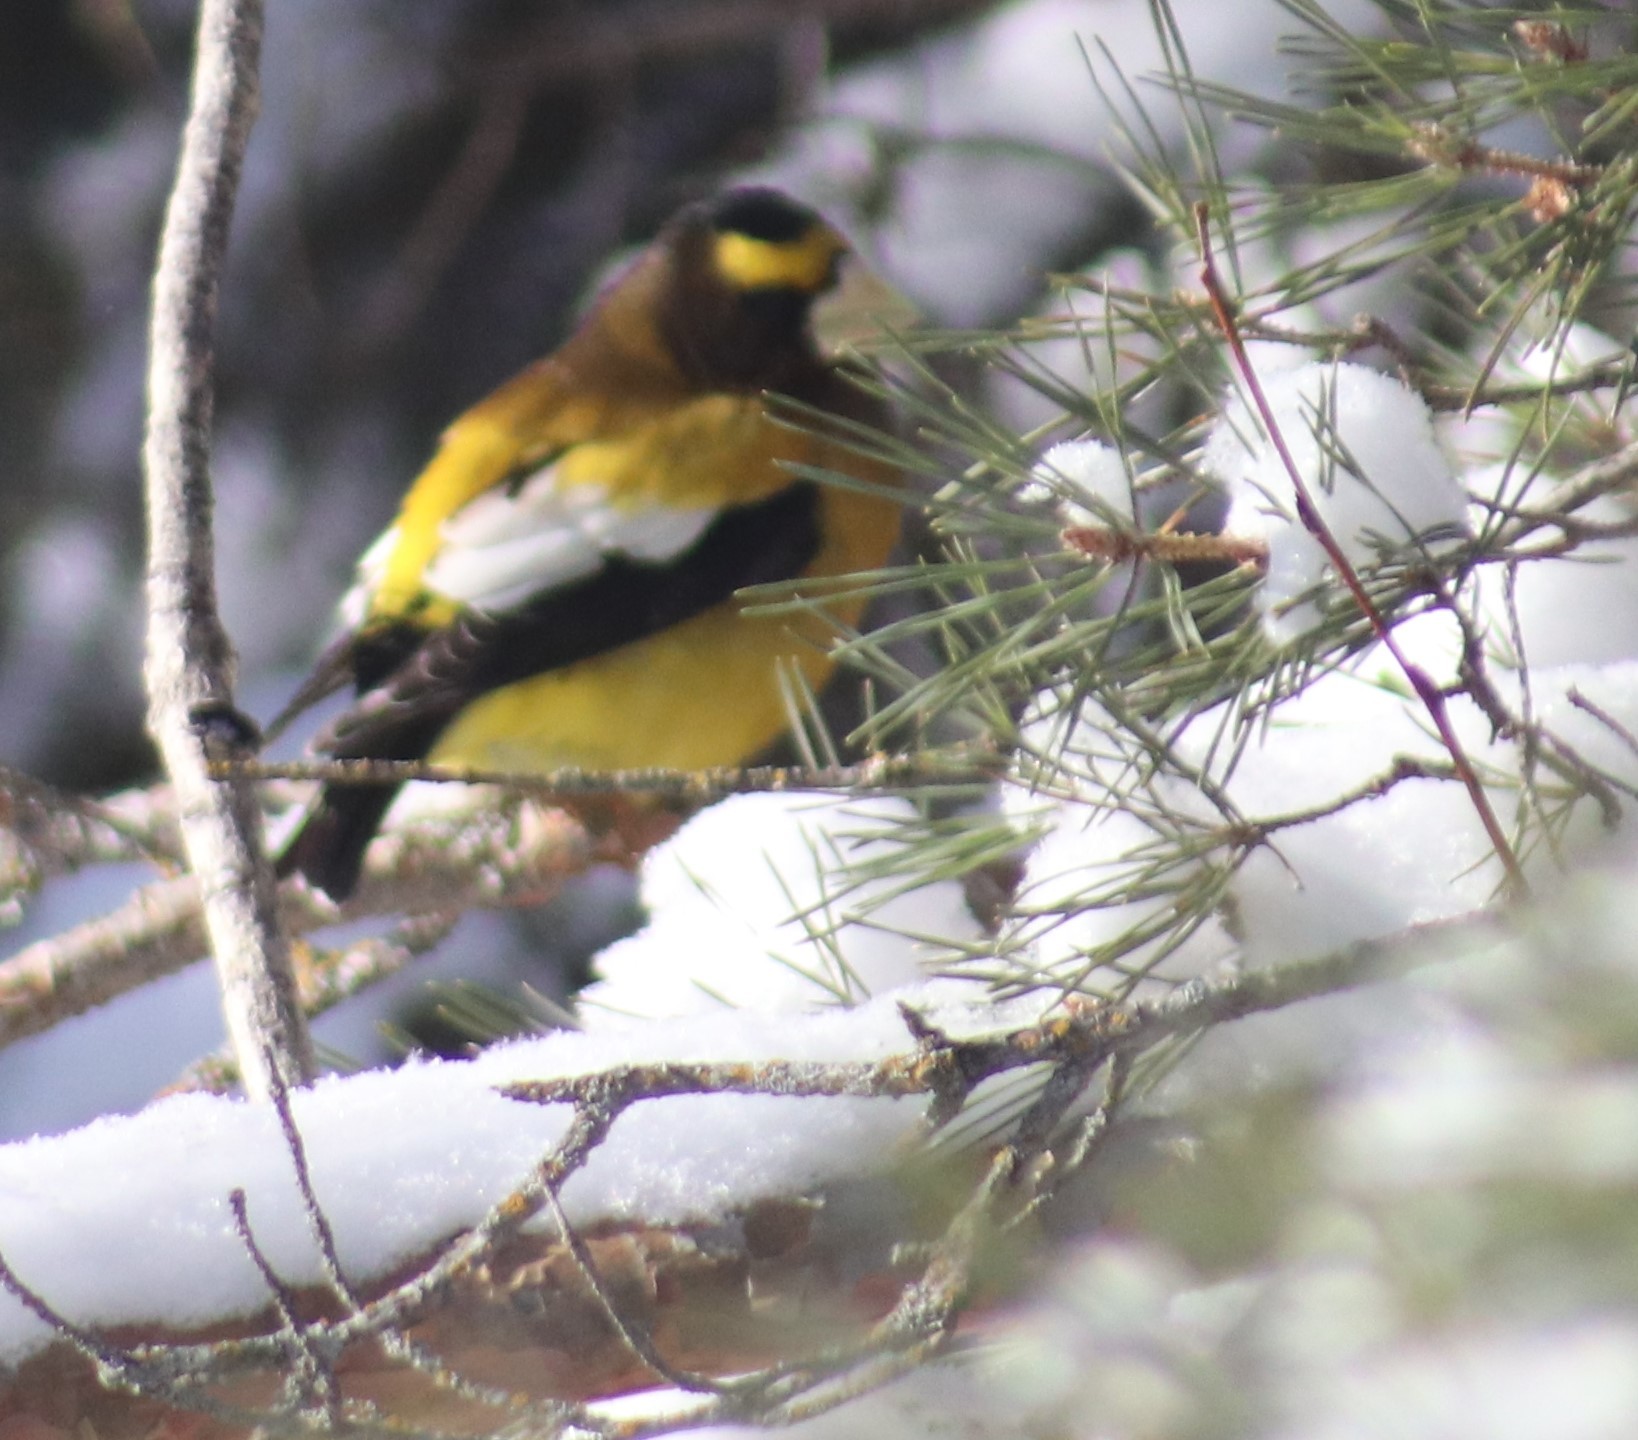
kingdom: Animalia
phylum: Chordata
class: Aves
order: Passeriformes
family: Fringillidae
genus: Hesperiphona
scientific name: Hesperiphona vespertina
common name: Evening grosbeak
